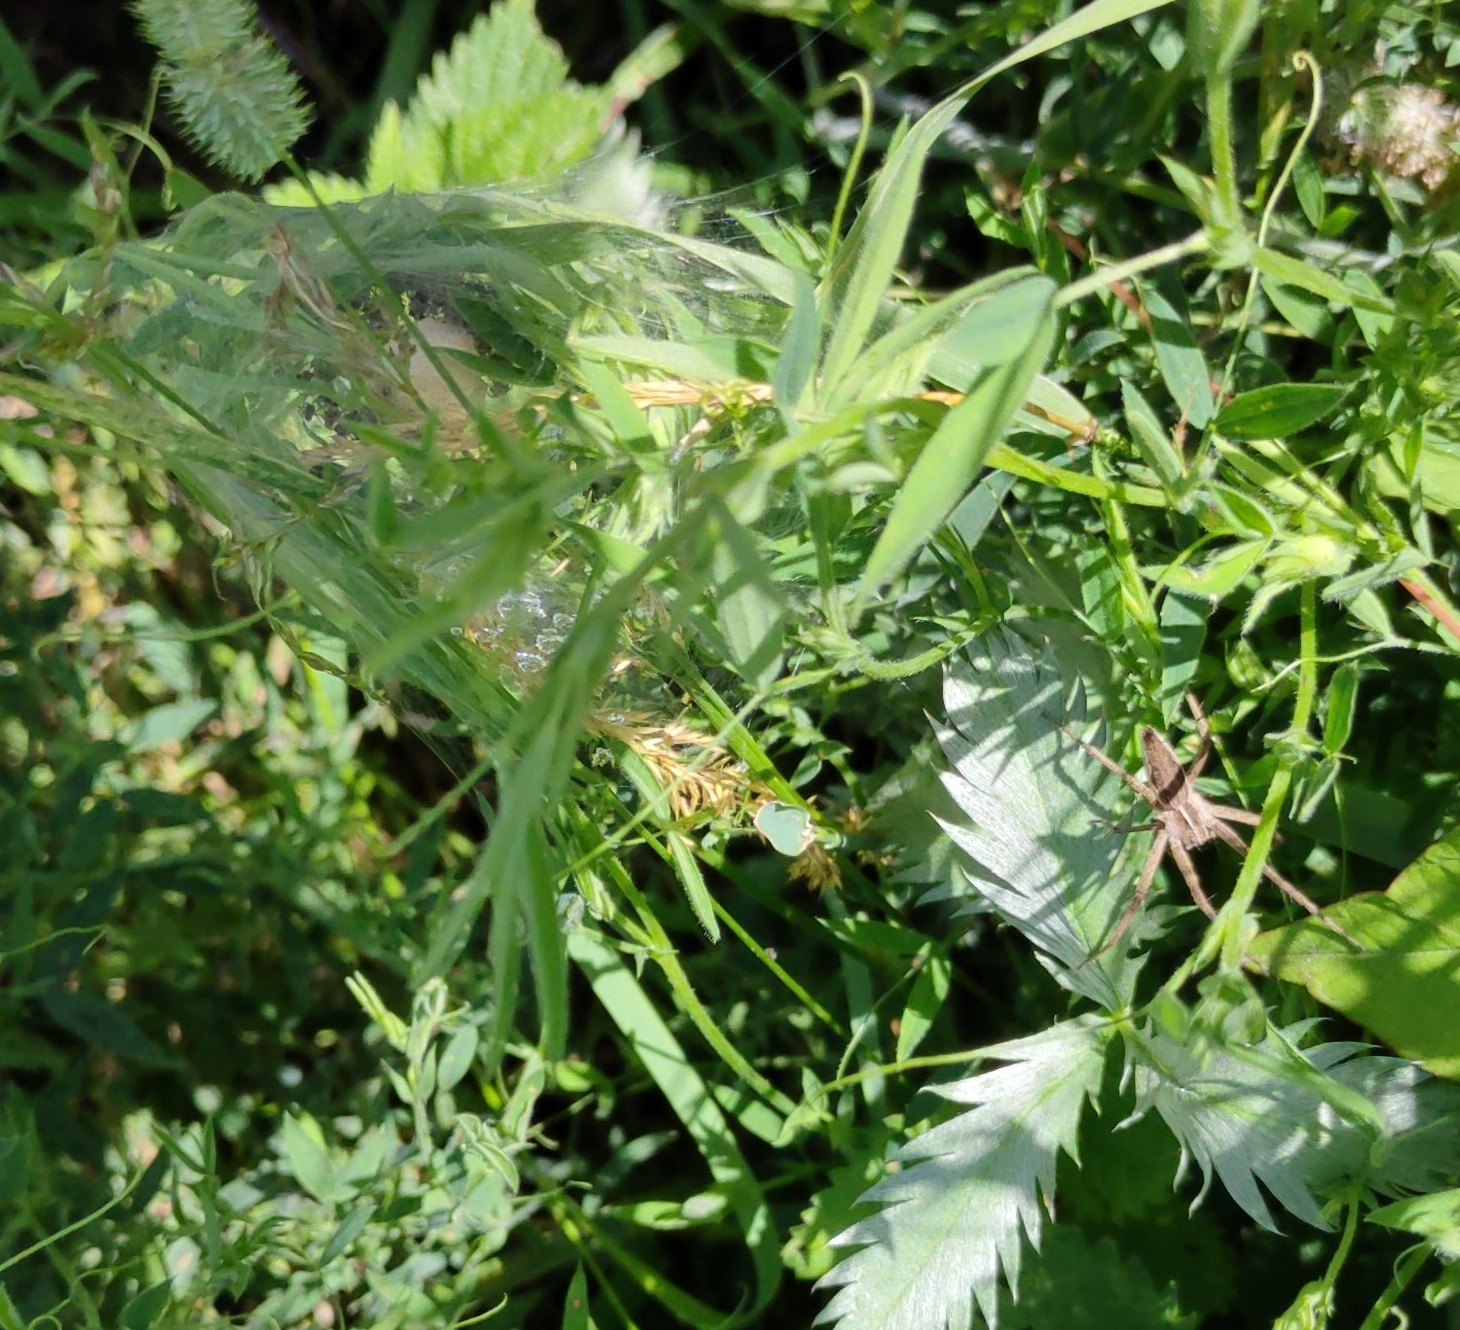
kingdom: Animalia
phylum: Arthropoda
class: Arachnida
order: Araneae
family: Pisauridae
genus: Pisaura
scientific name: Pisaura mirabilis
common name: Tent spider
